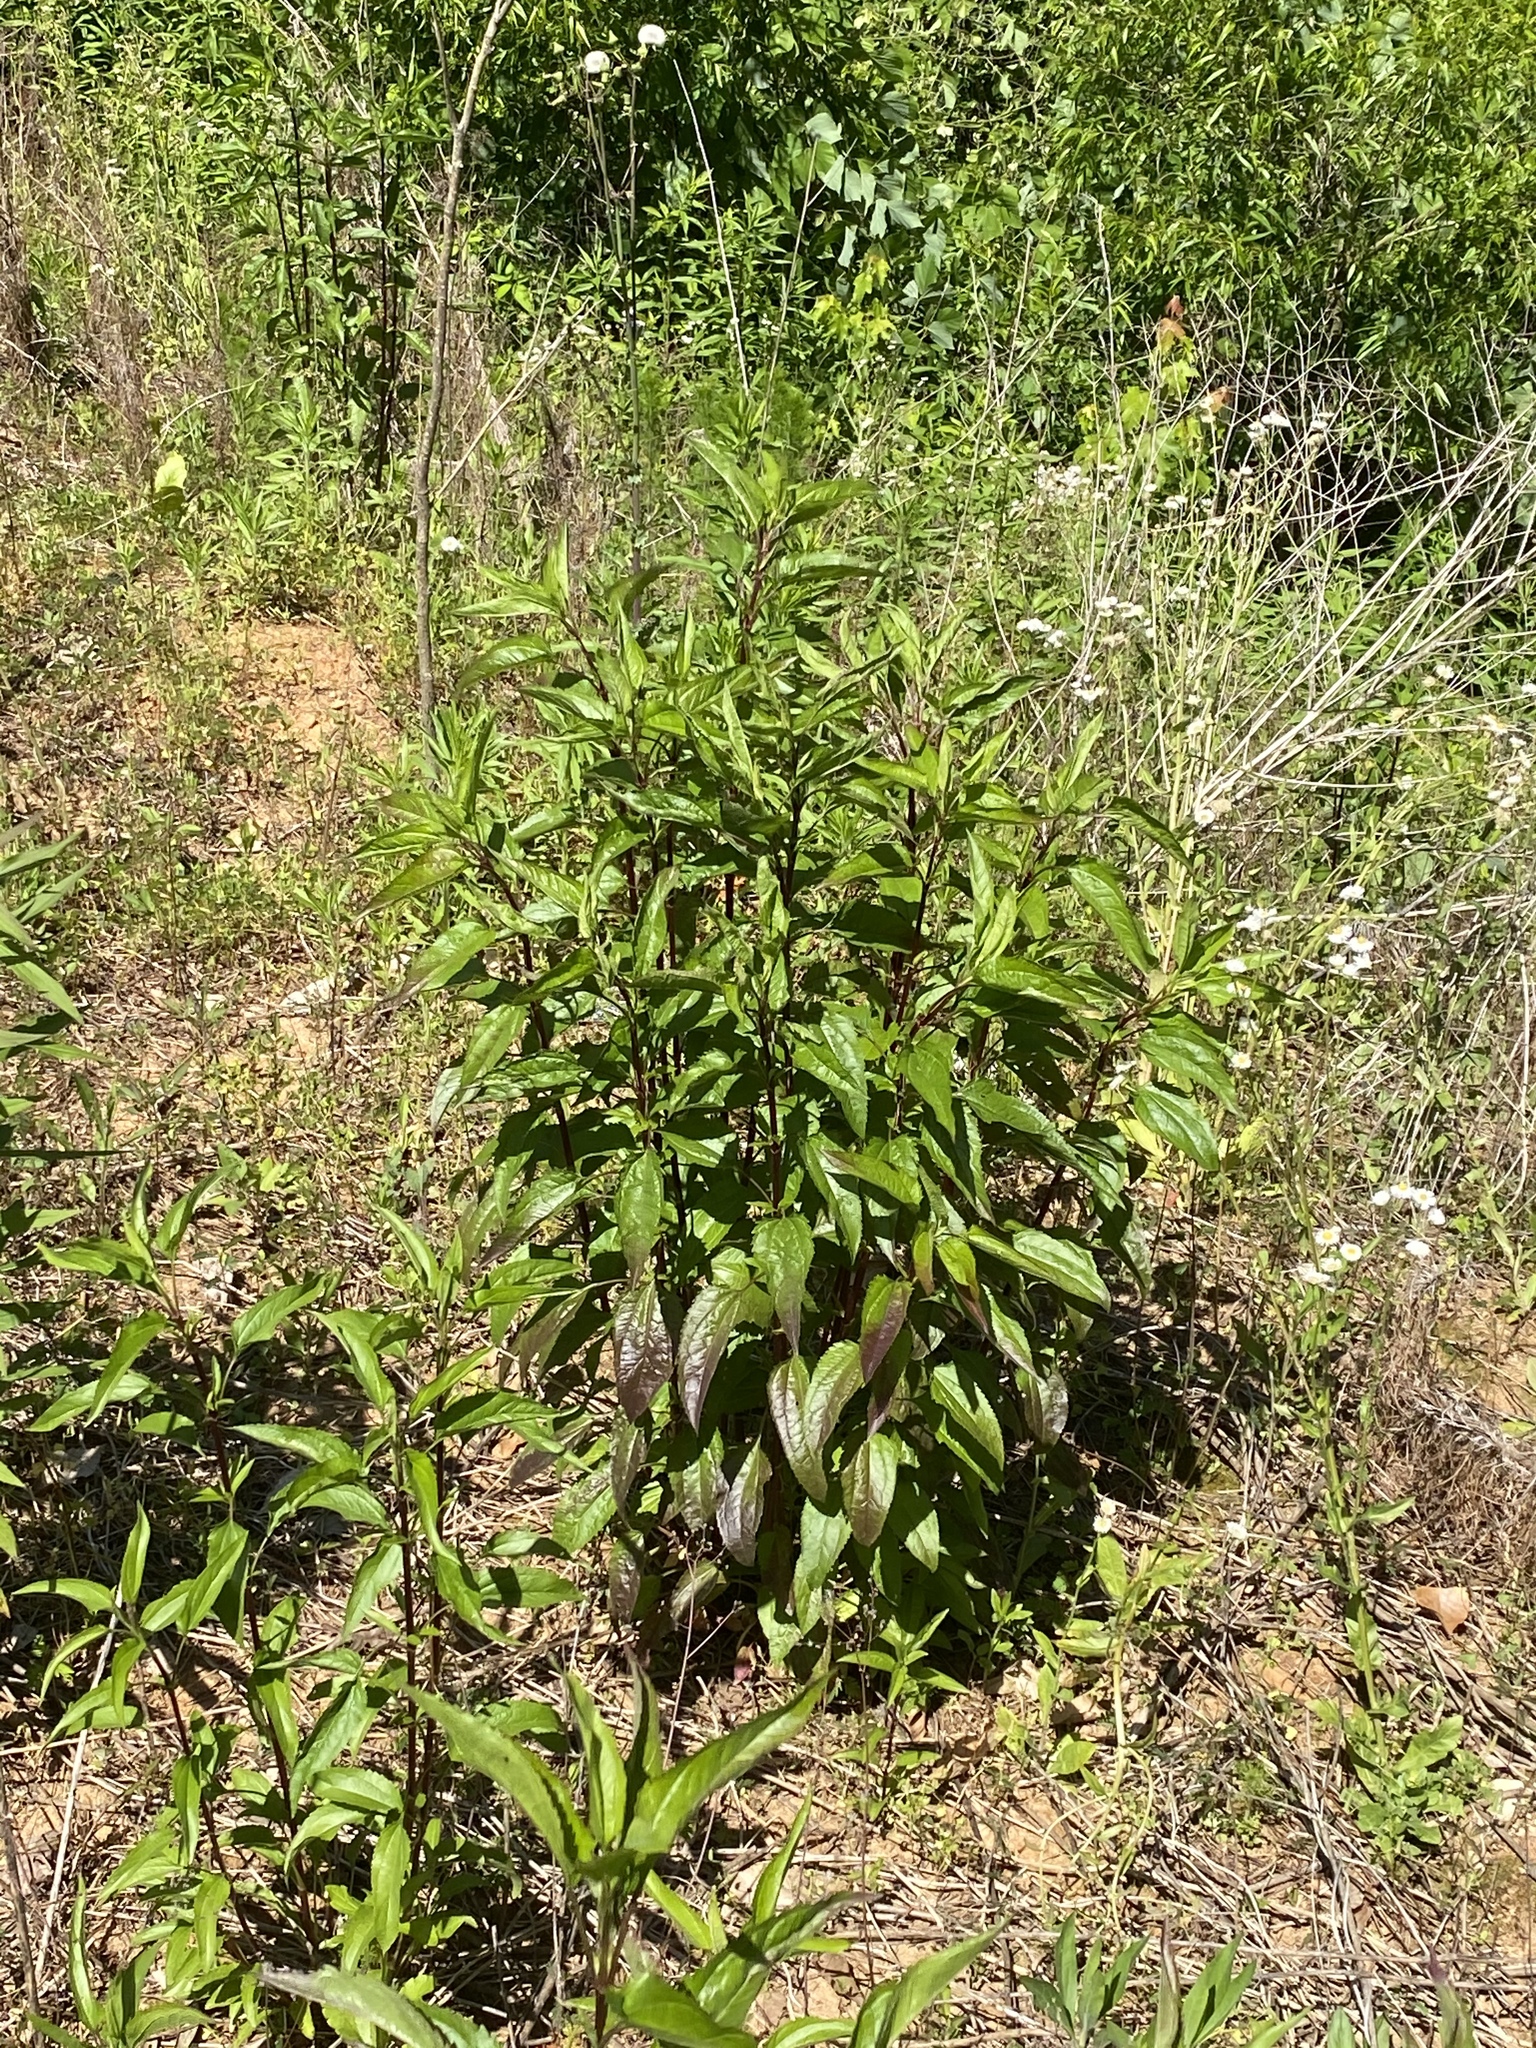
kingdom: Plantae
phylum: Tracheophyta
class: Magnoliopsida
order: Asterales
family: Asteraceae
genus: Eupatorium
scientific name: Eupatorium serotinum
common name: Late boneset
